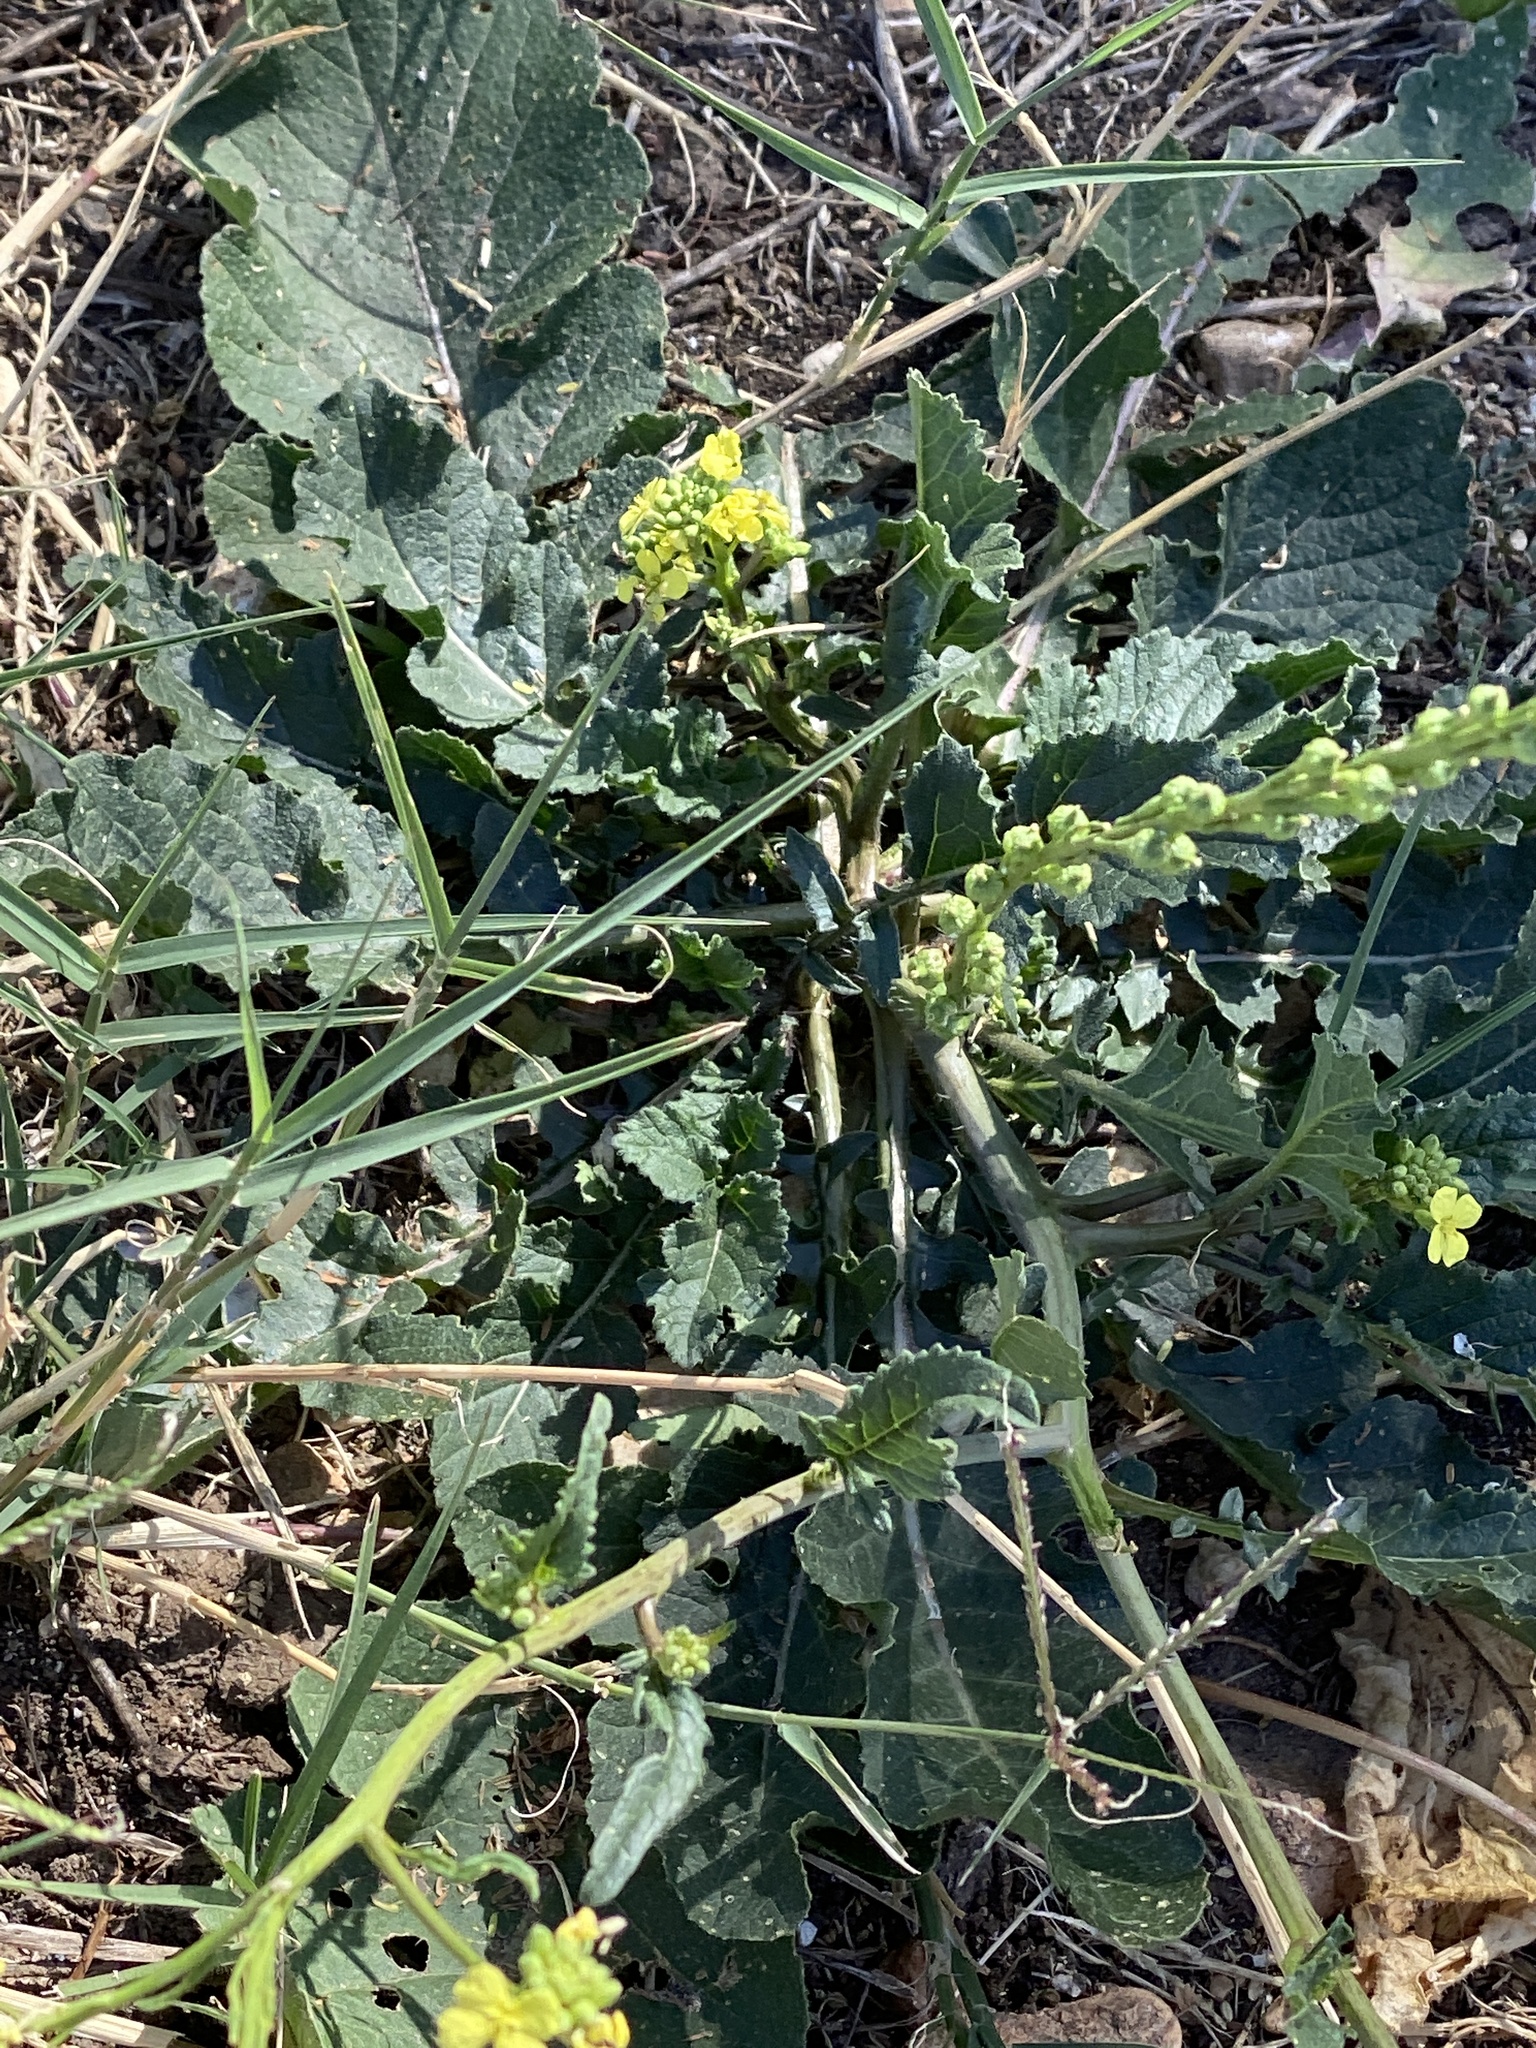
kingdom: Plantae
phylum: Tracheophyta
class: Magnoliopsida
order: Brassicales
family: Brassicaceae
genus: Rapistrum
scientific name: Rapistrum rugosum
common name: Annual bastardcabbage
